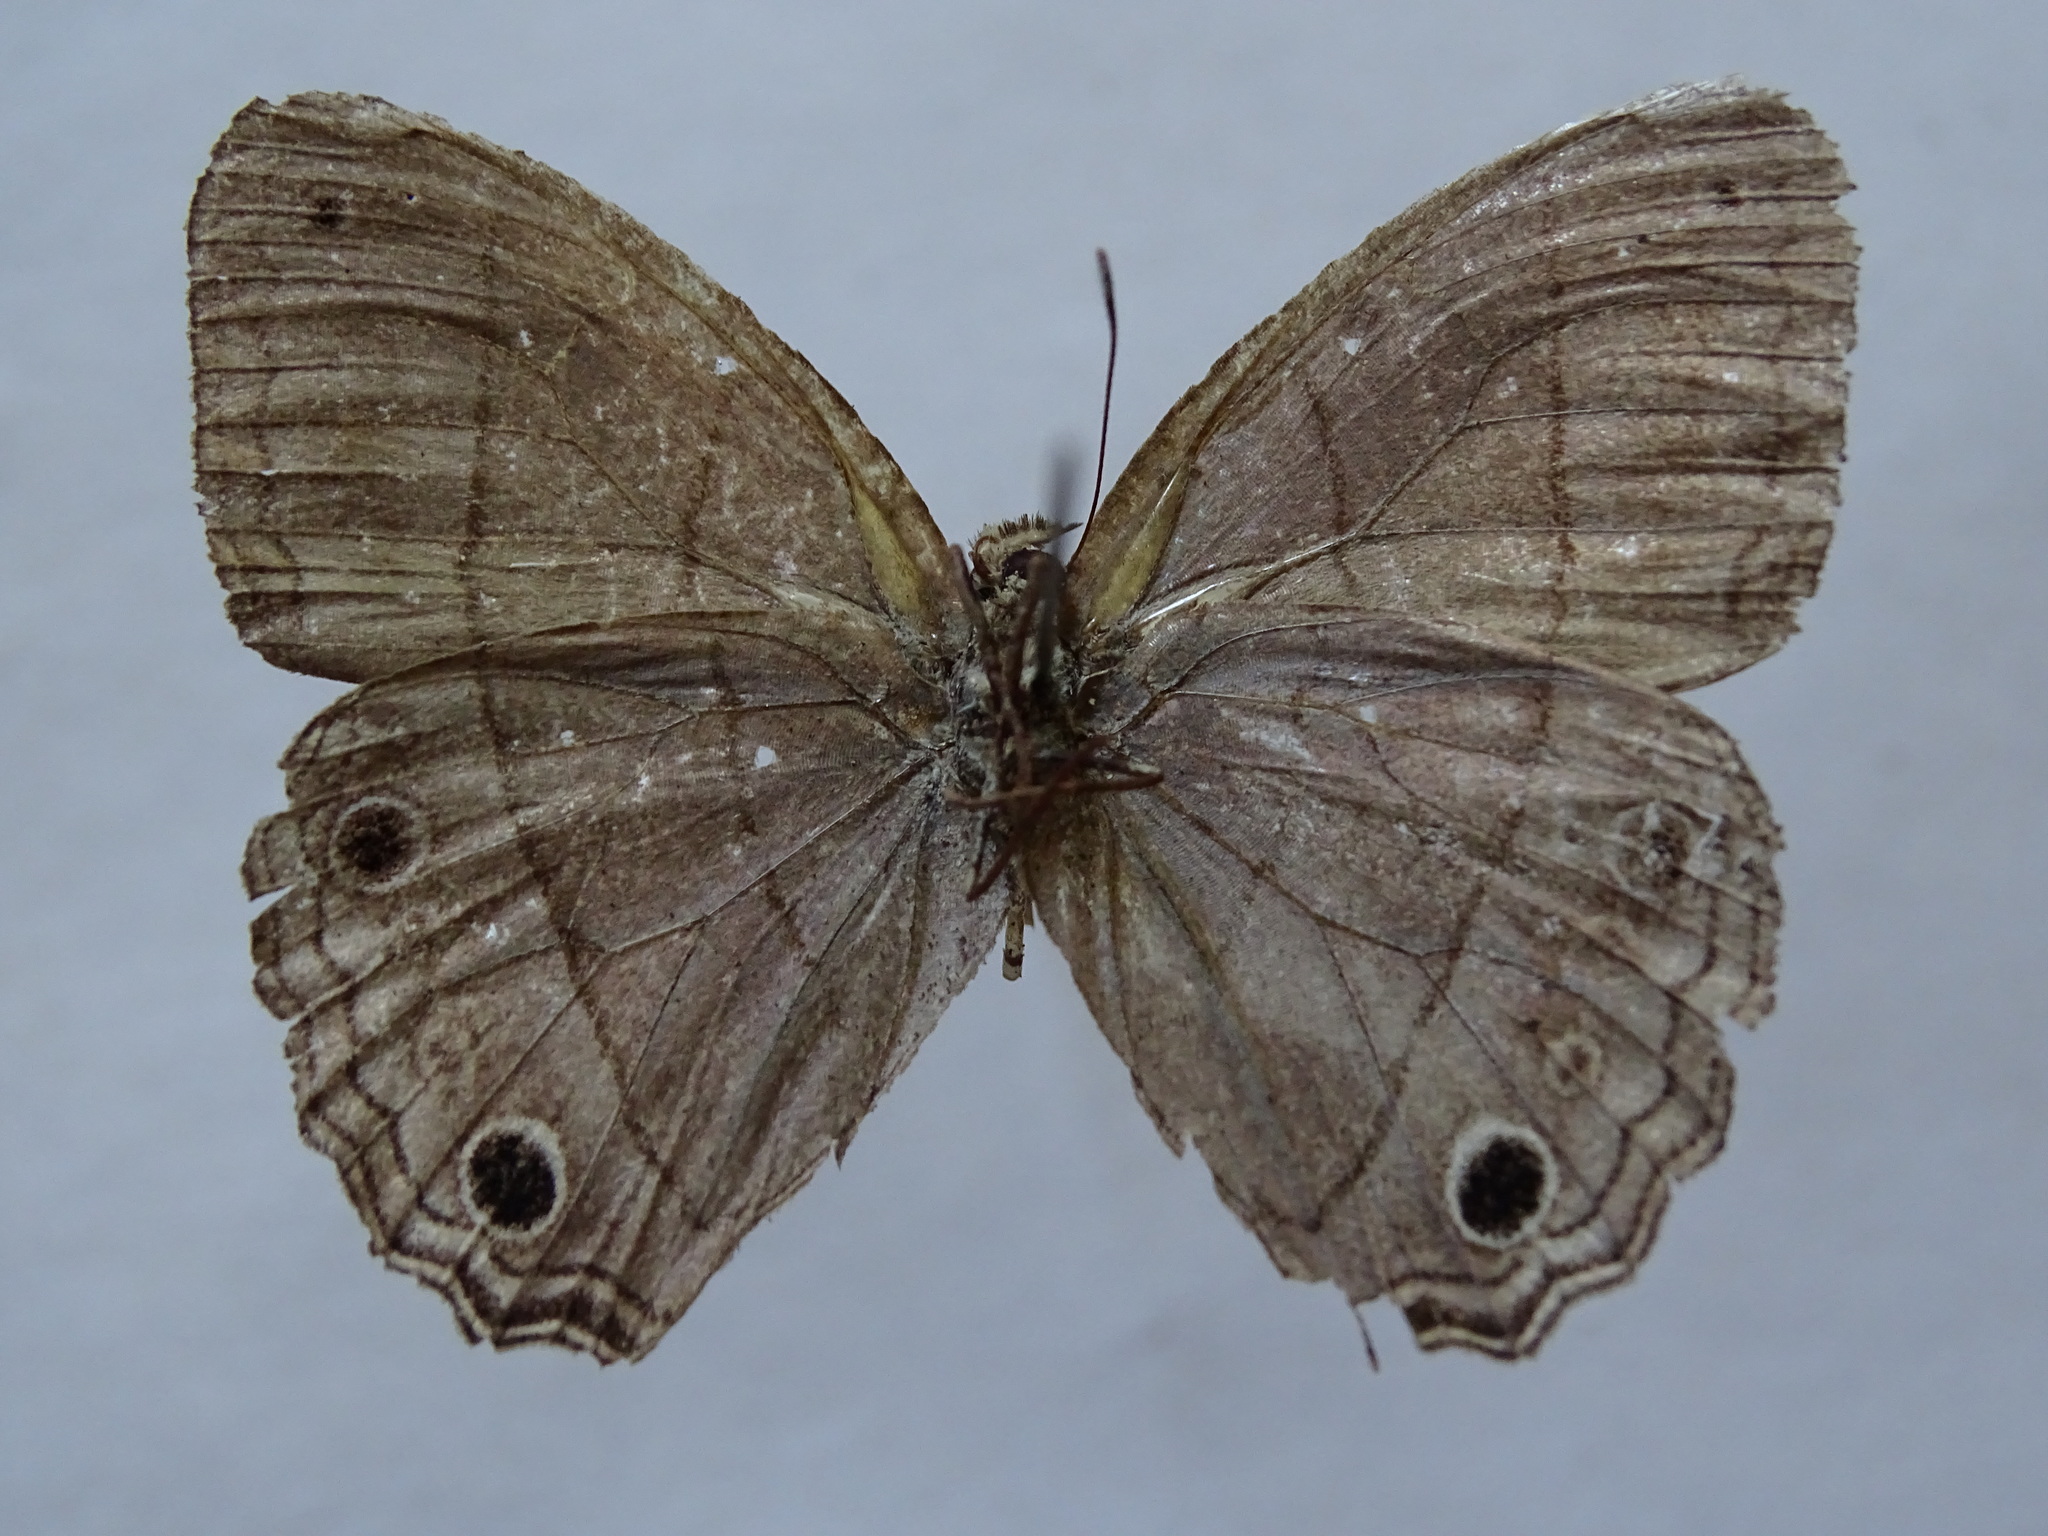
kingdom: Animalia
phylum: Arthropoda
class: Insecta
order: Lepidoptera
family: Nymphalidae
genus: Vareuptychia
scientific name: Vareuptychia similis
